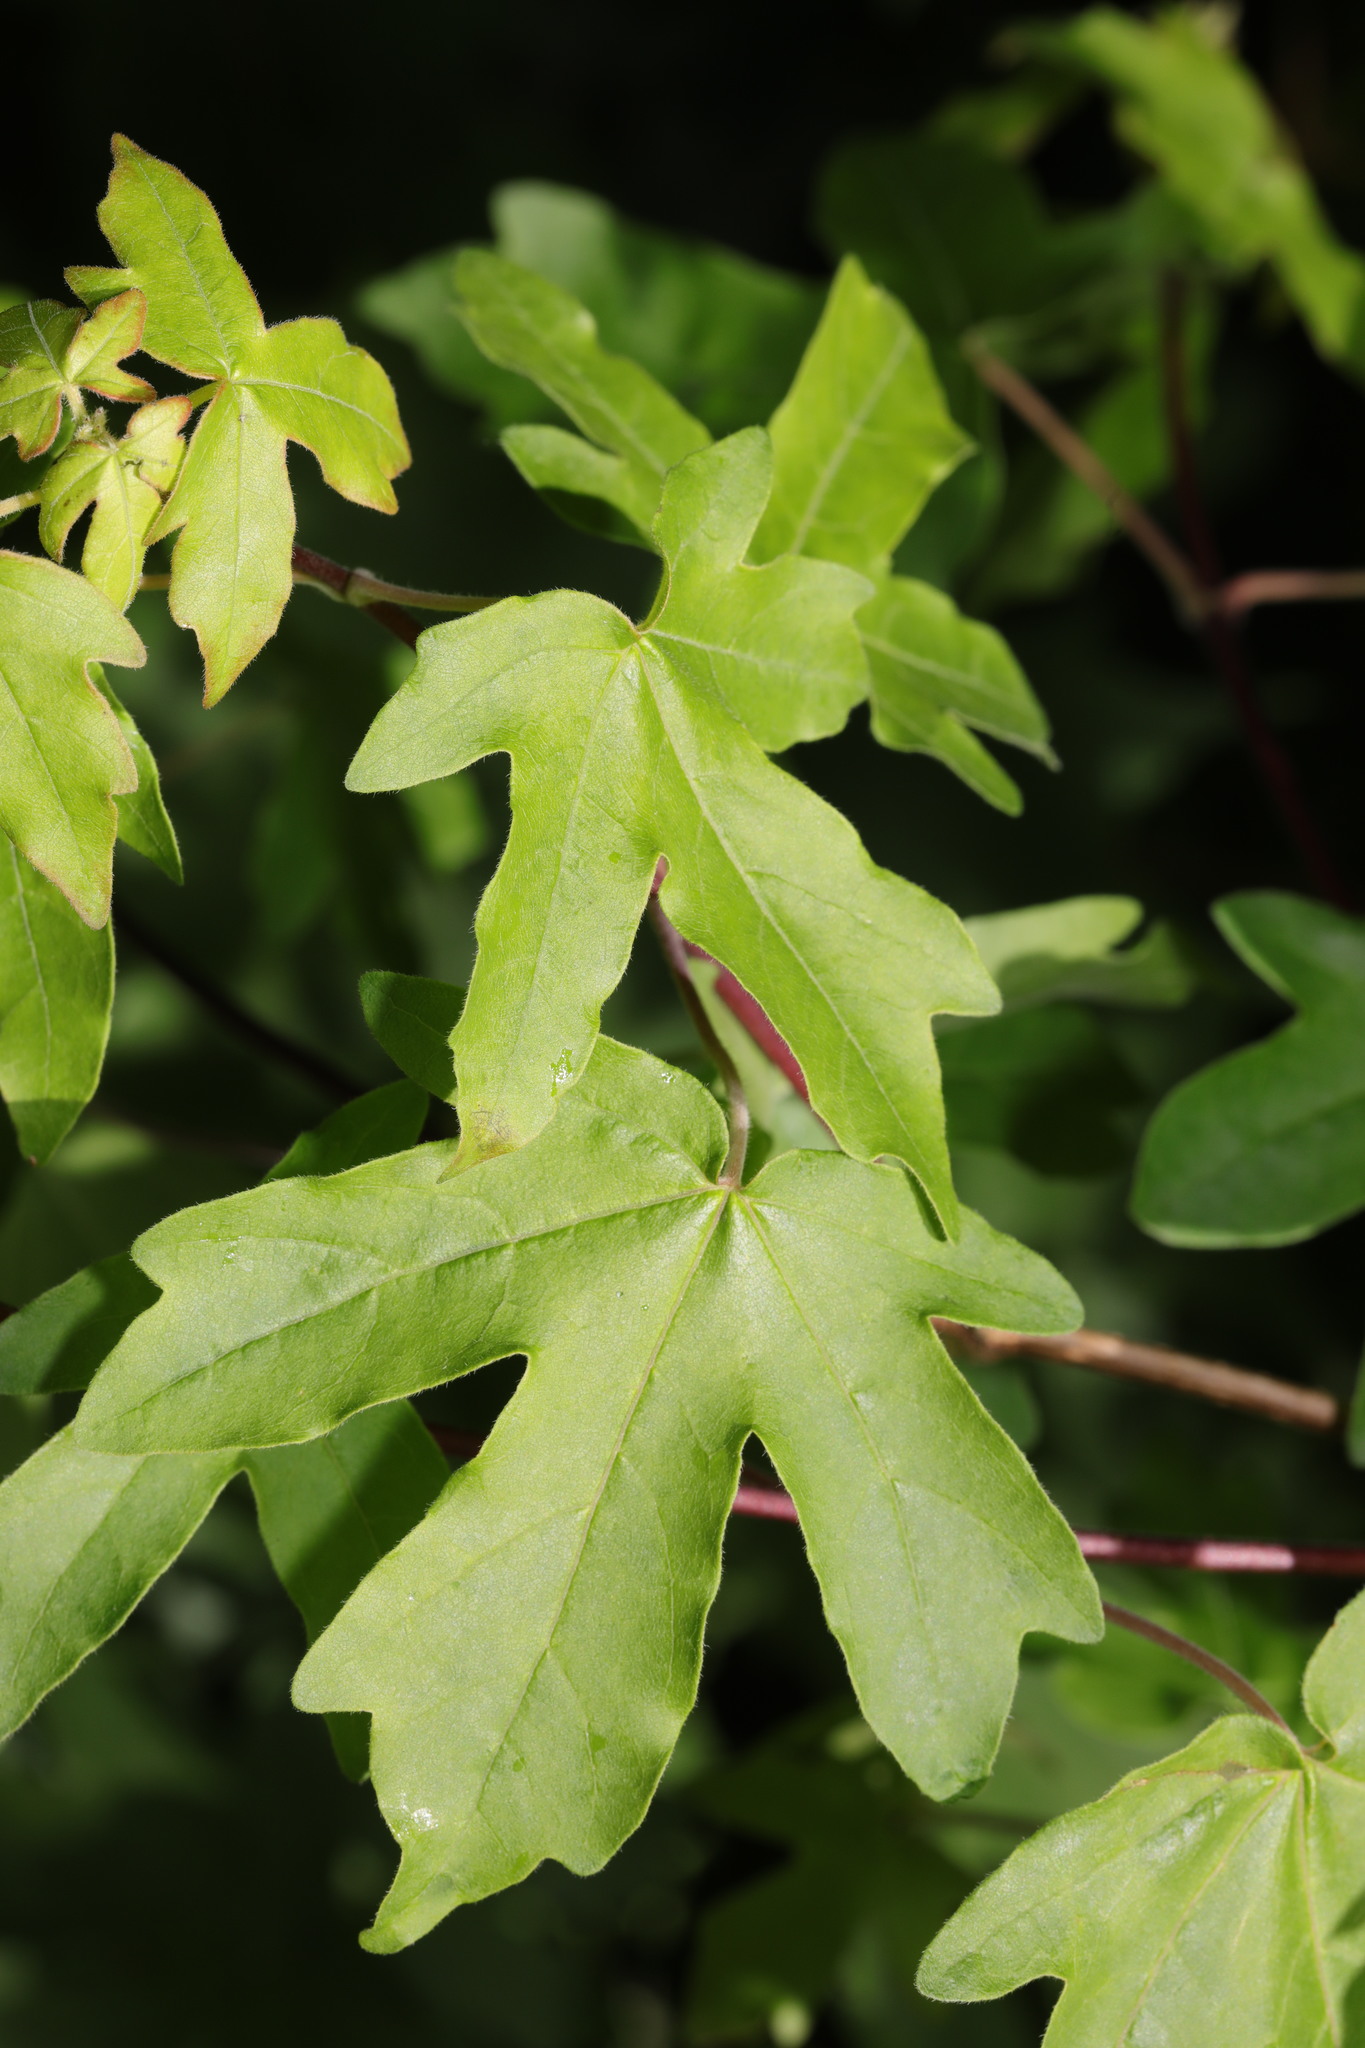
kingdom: Plantae
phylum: Tracheophyta
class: Magnoliopsida
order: Sapindales
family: Sapindaceae
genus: Acer
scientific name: Acer campestre
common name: Field maple
